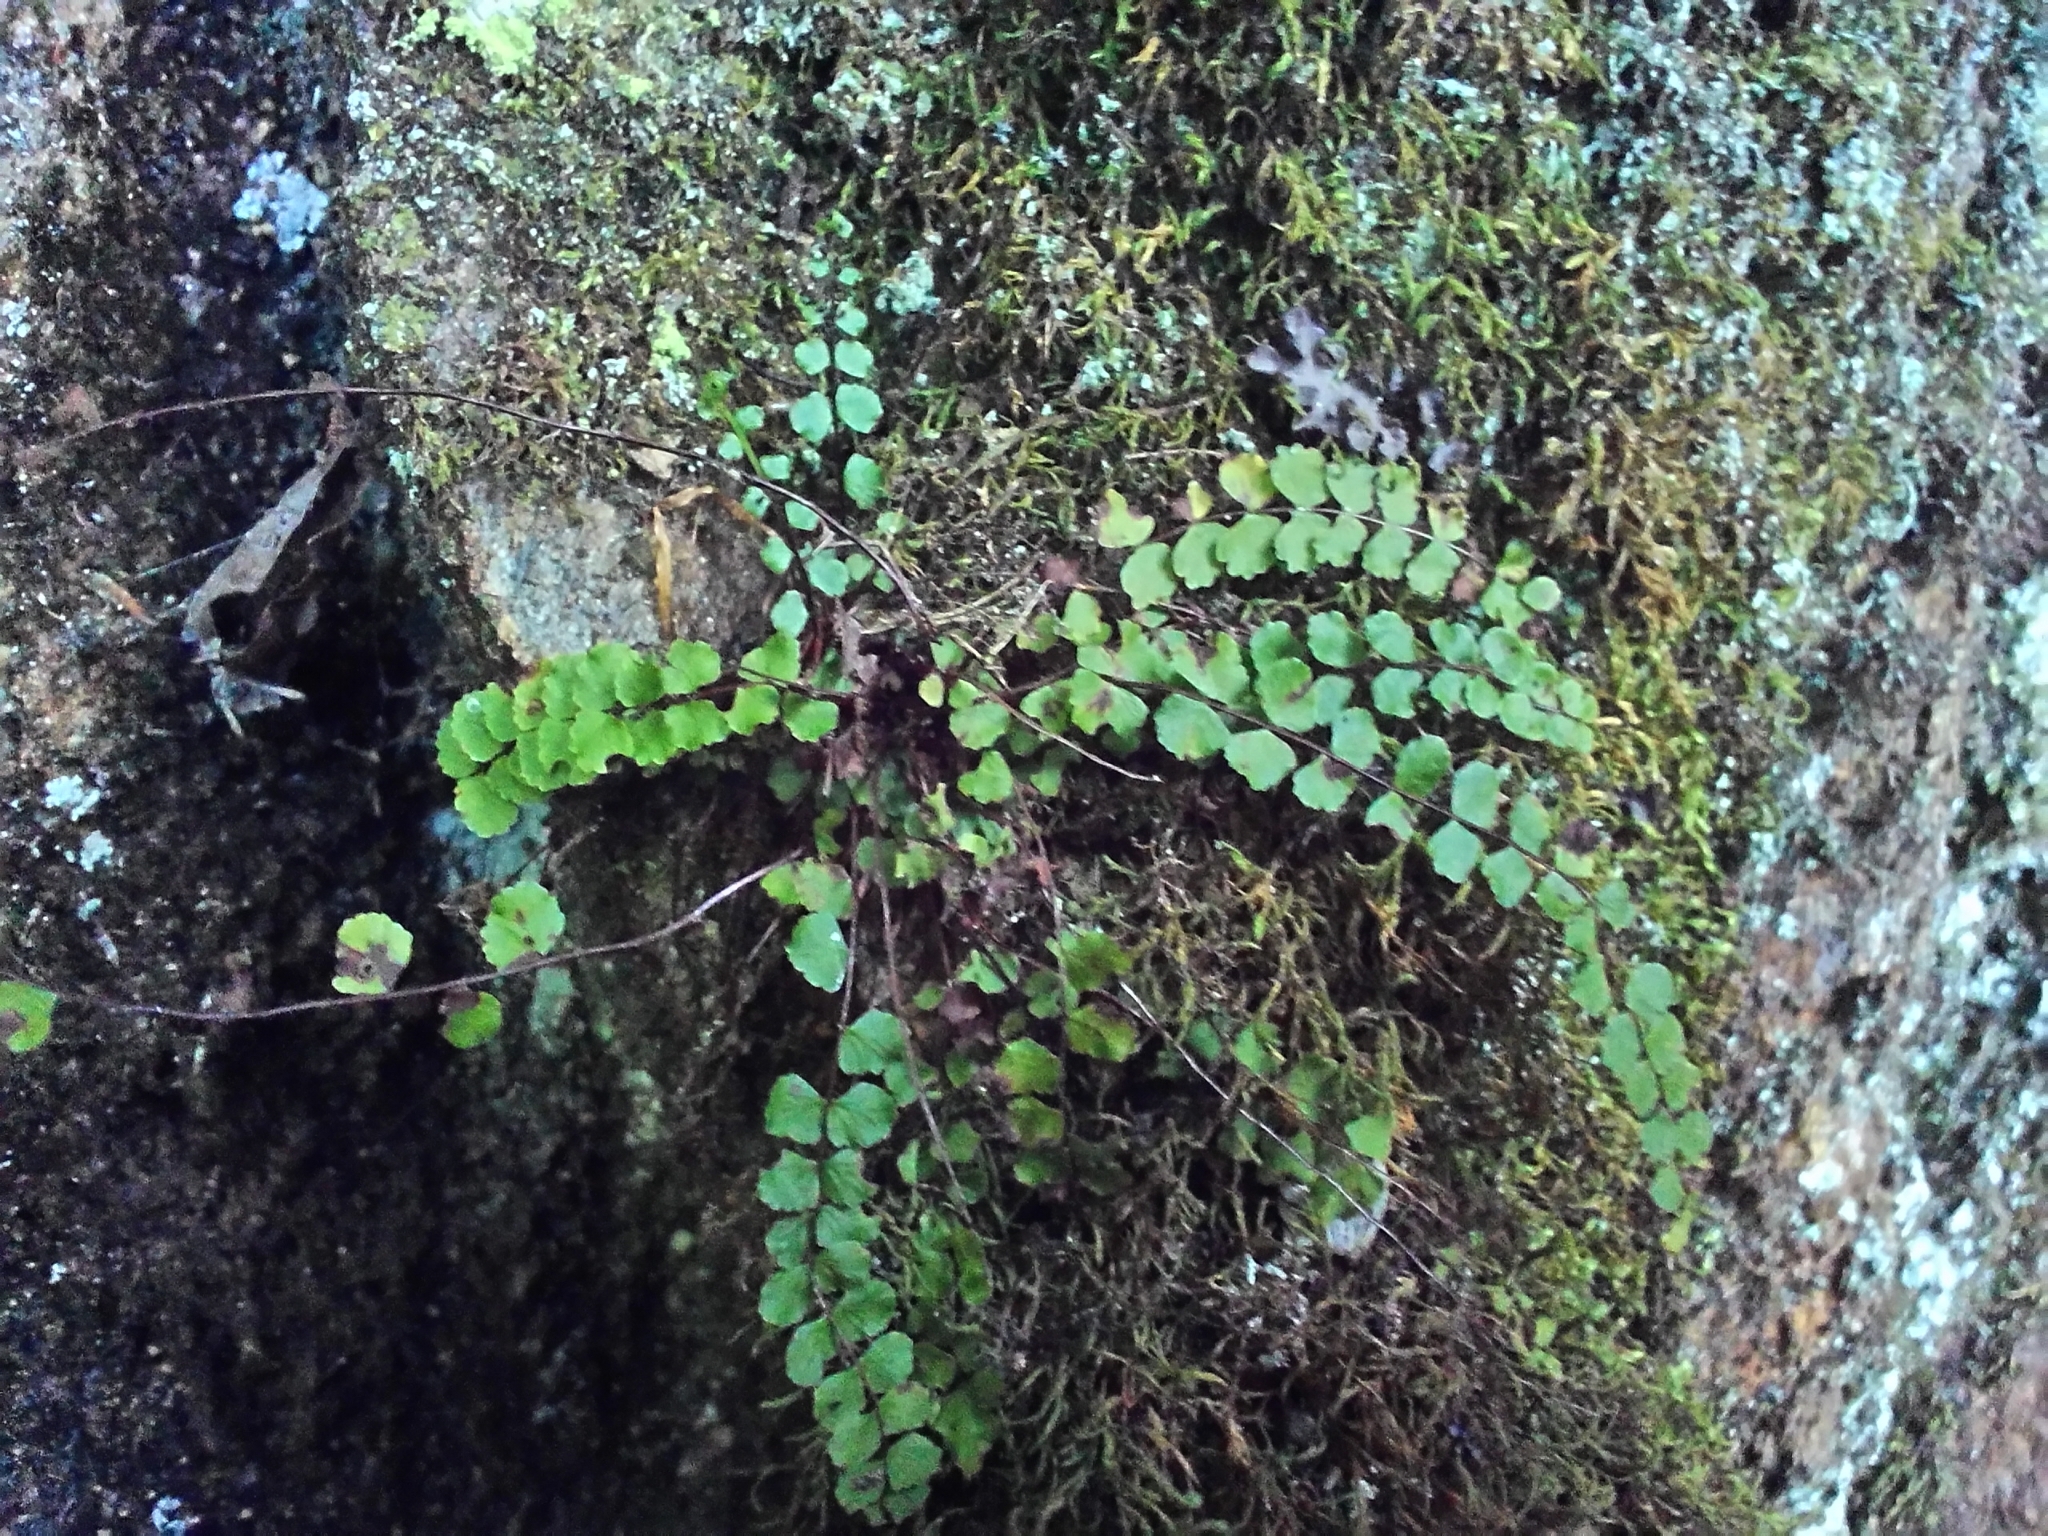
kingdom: Plantae
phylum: Tracheophyta
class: Polypodiopsida
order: Polypodiales
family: Aspleniaceae
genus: Asplenium
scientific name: Asplenium trichomanes
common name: Maidenhair spleenwort
